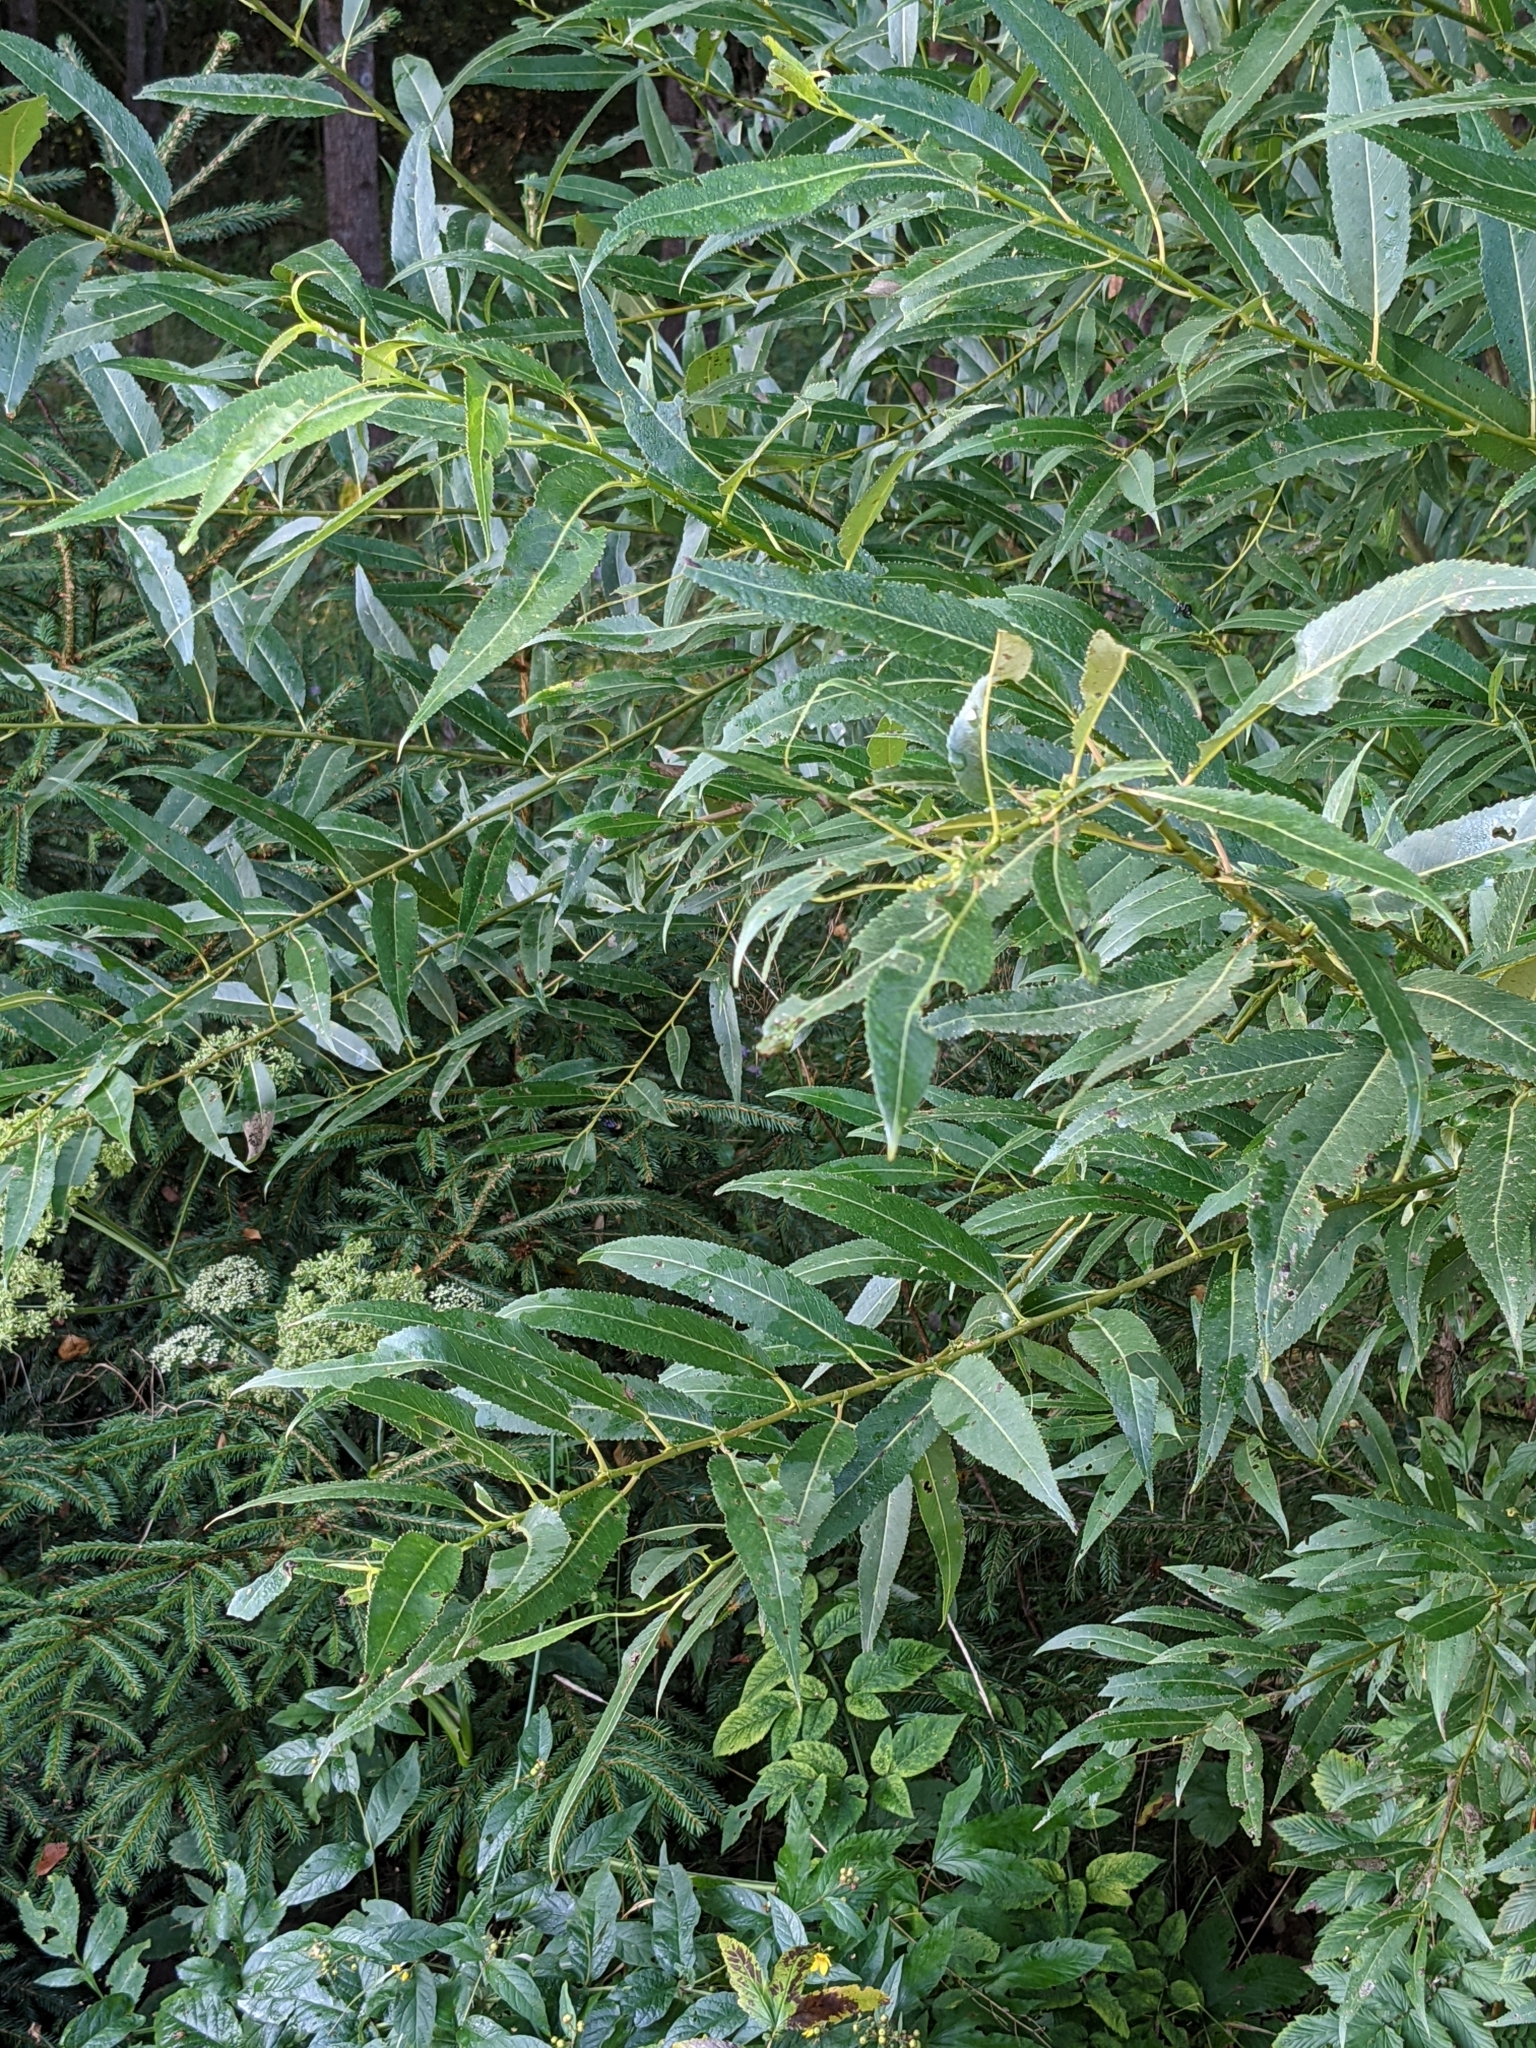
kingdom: Plantae
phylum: Tracheophyta
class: Magnoliopsida
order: Malpighiales
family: Salicaceae
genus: Salix
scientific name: Salix triandra
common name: Almond willow
